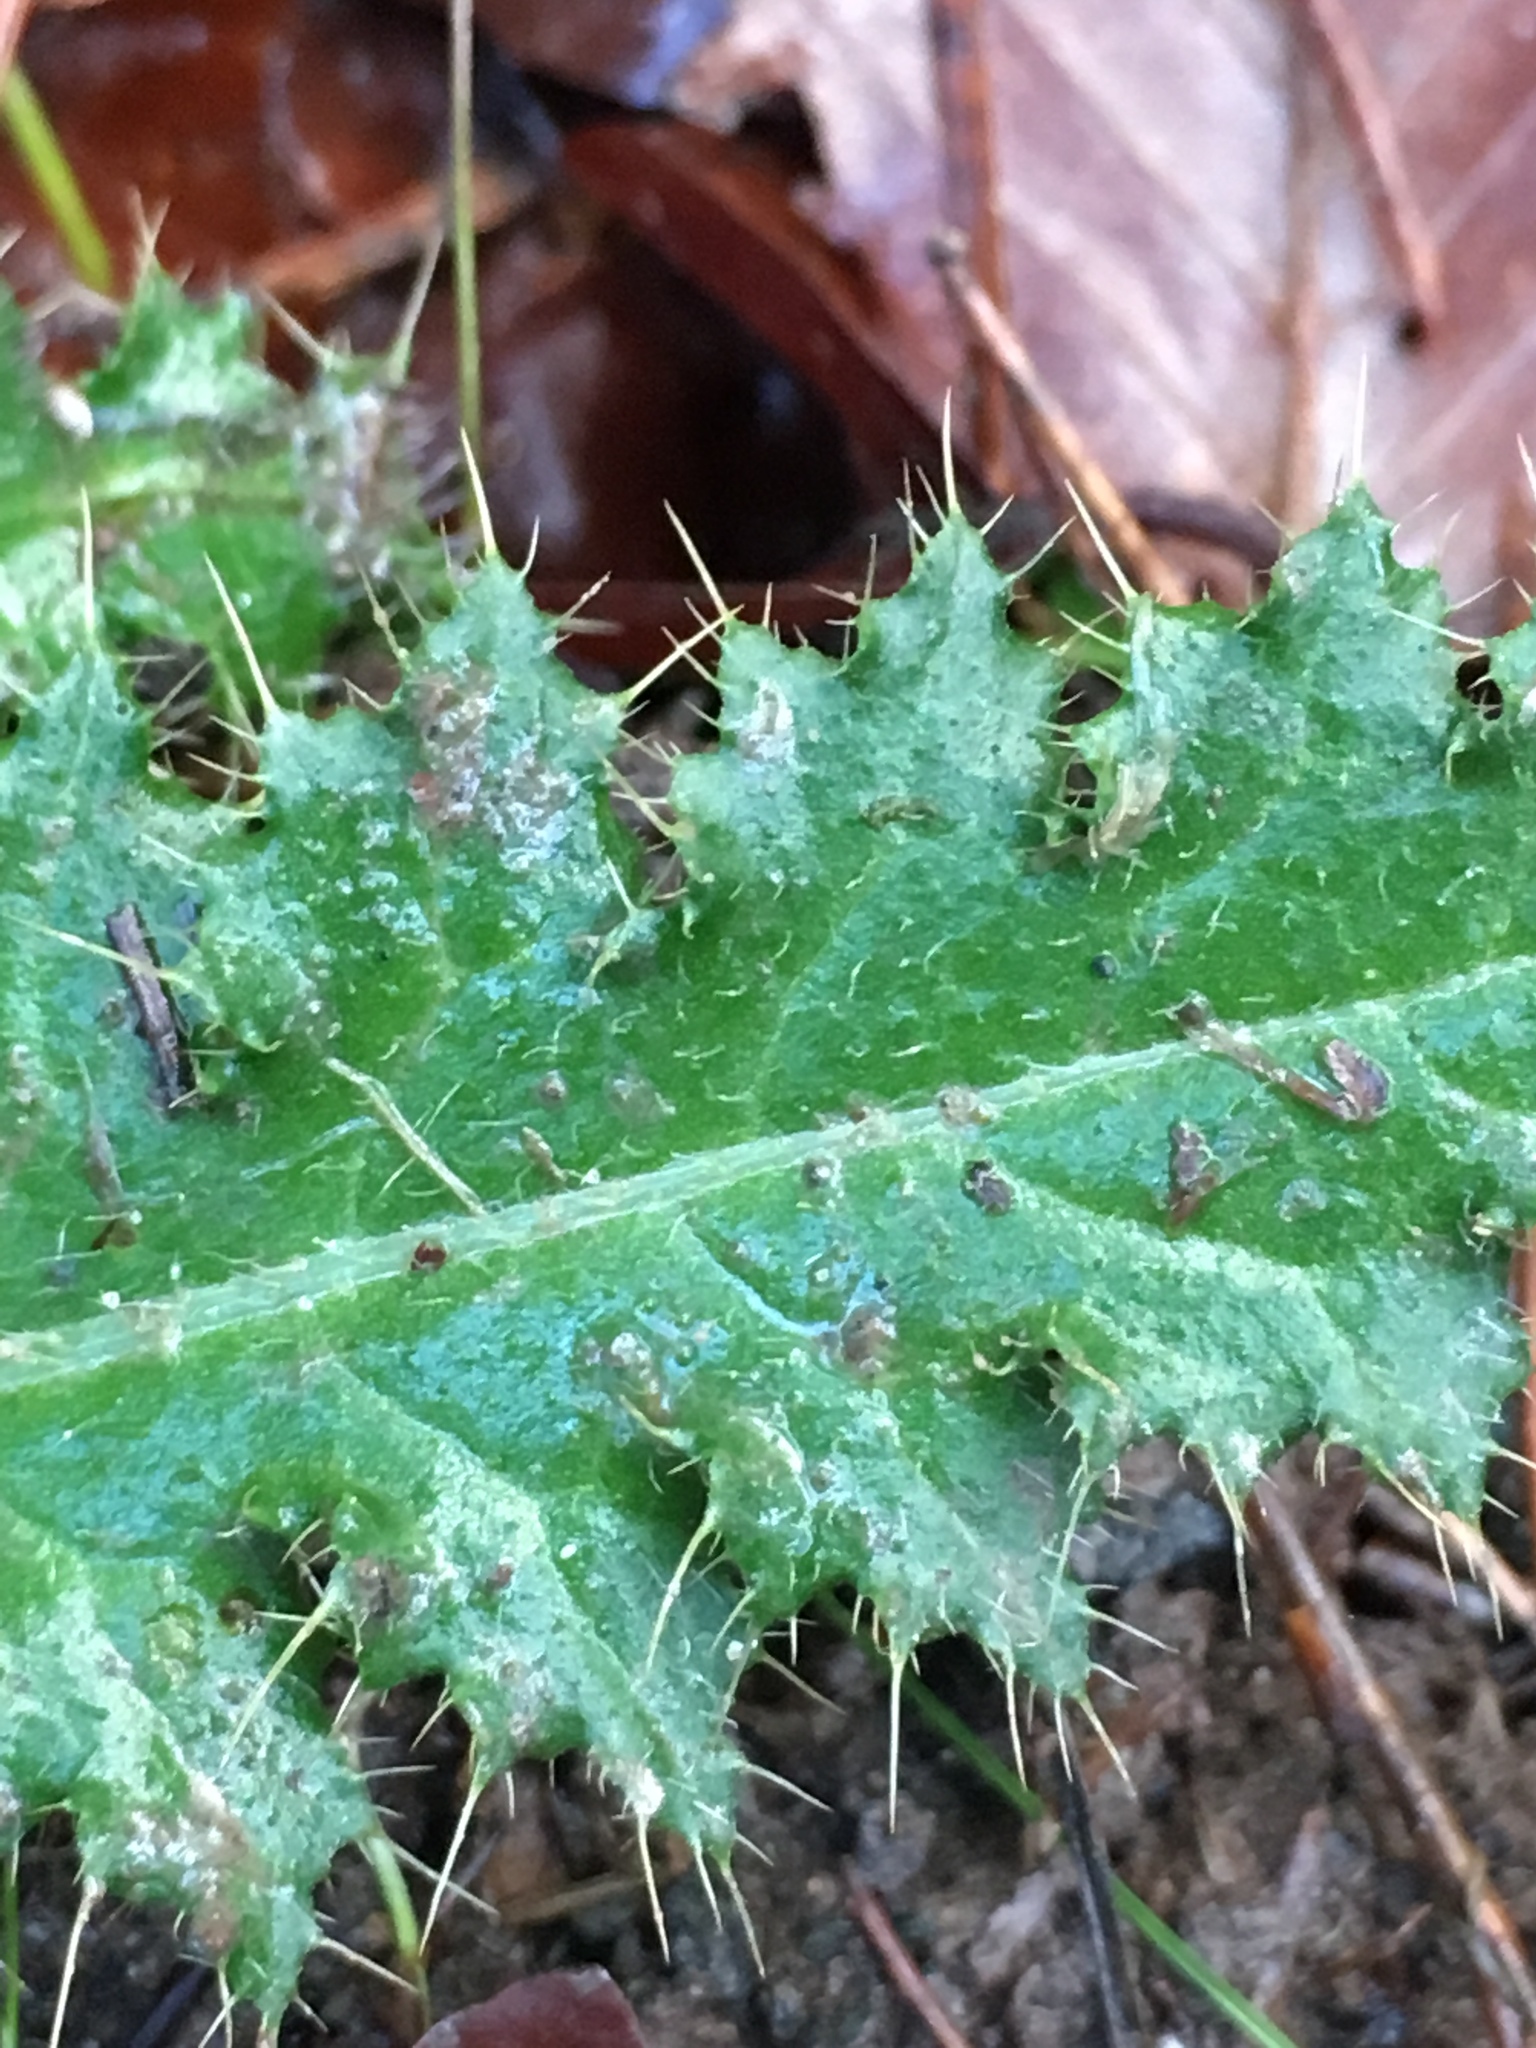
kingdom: Plantae
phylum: Tracheophyta
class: Magnoliopsida
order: Asterales
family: Asteraceae
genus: Cirsium
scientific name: Cirsium arvense
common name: Creeping thistle
